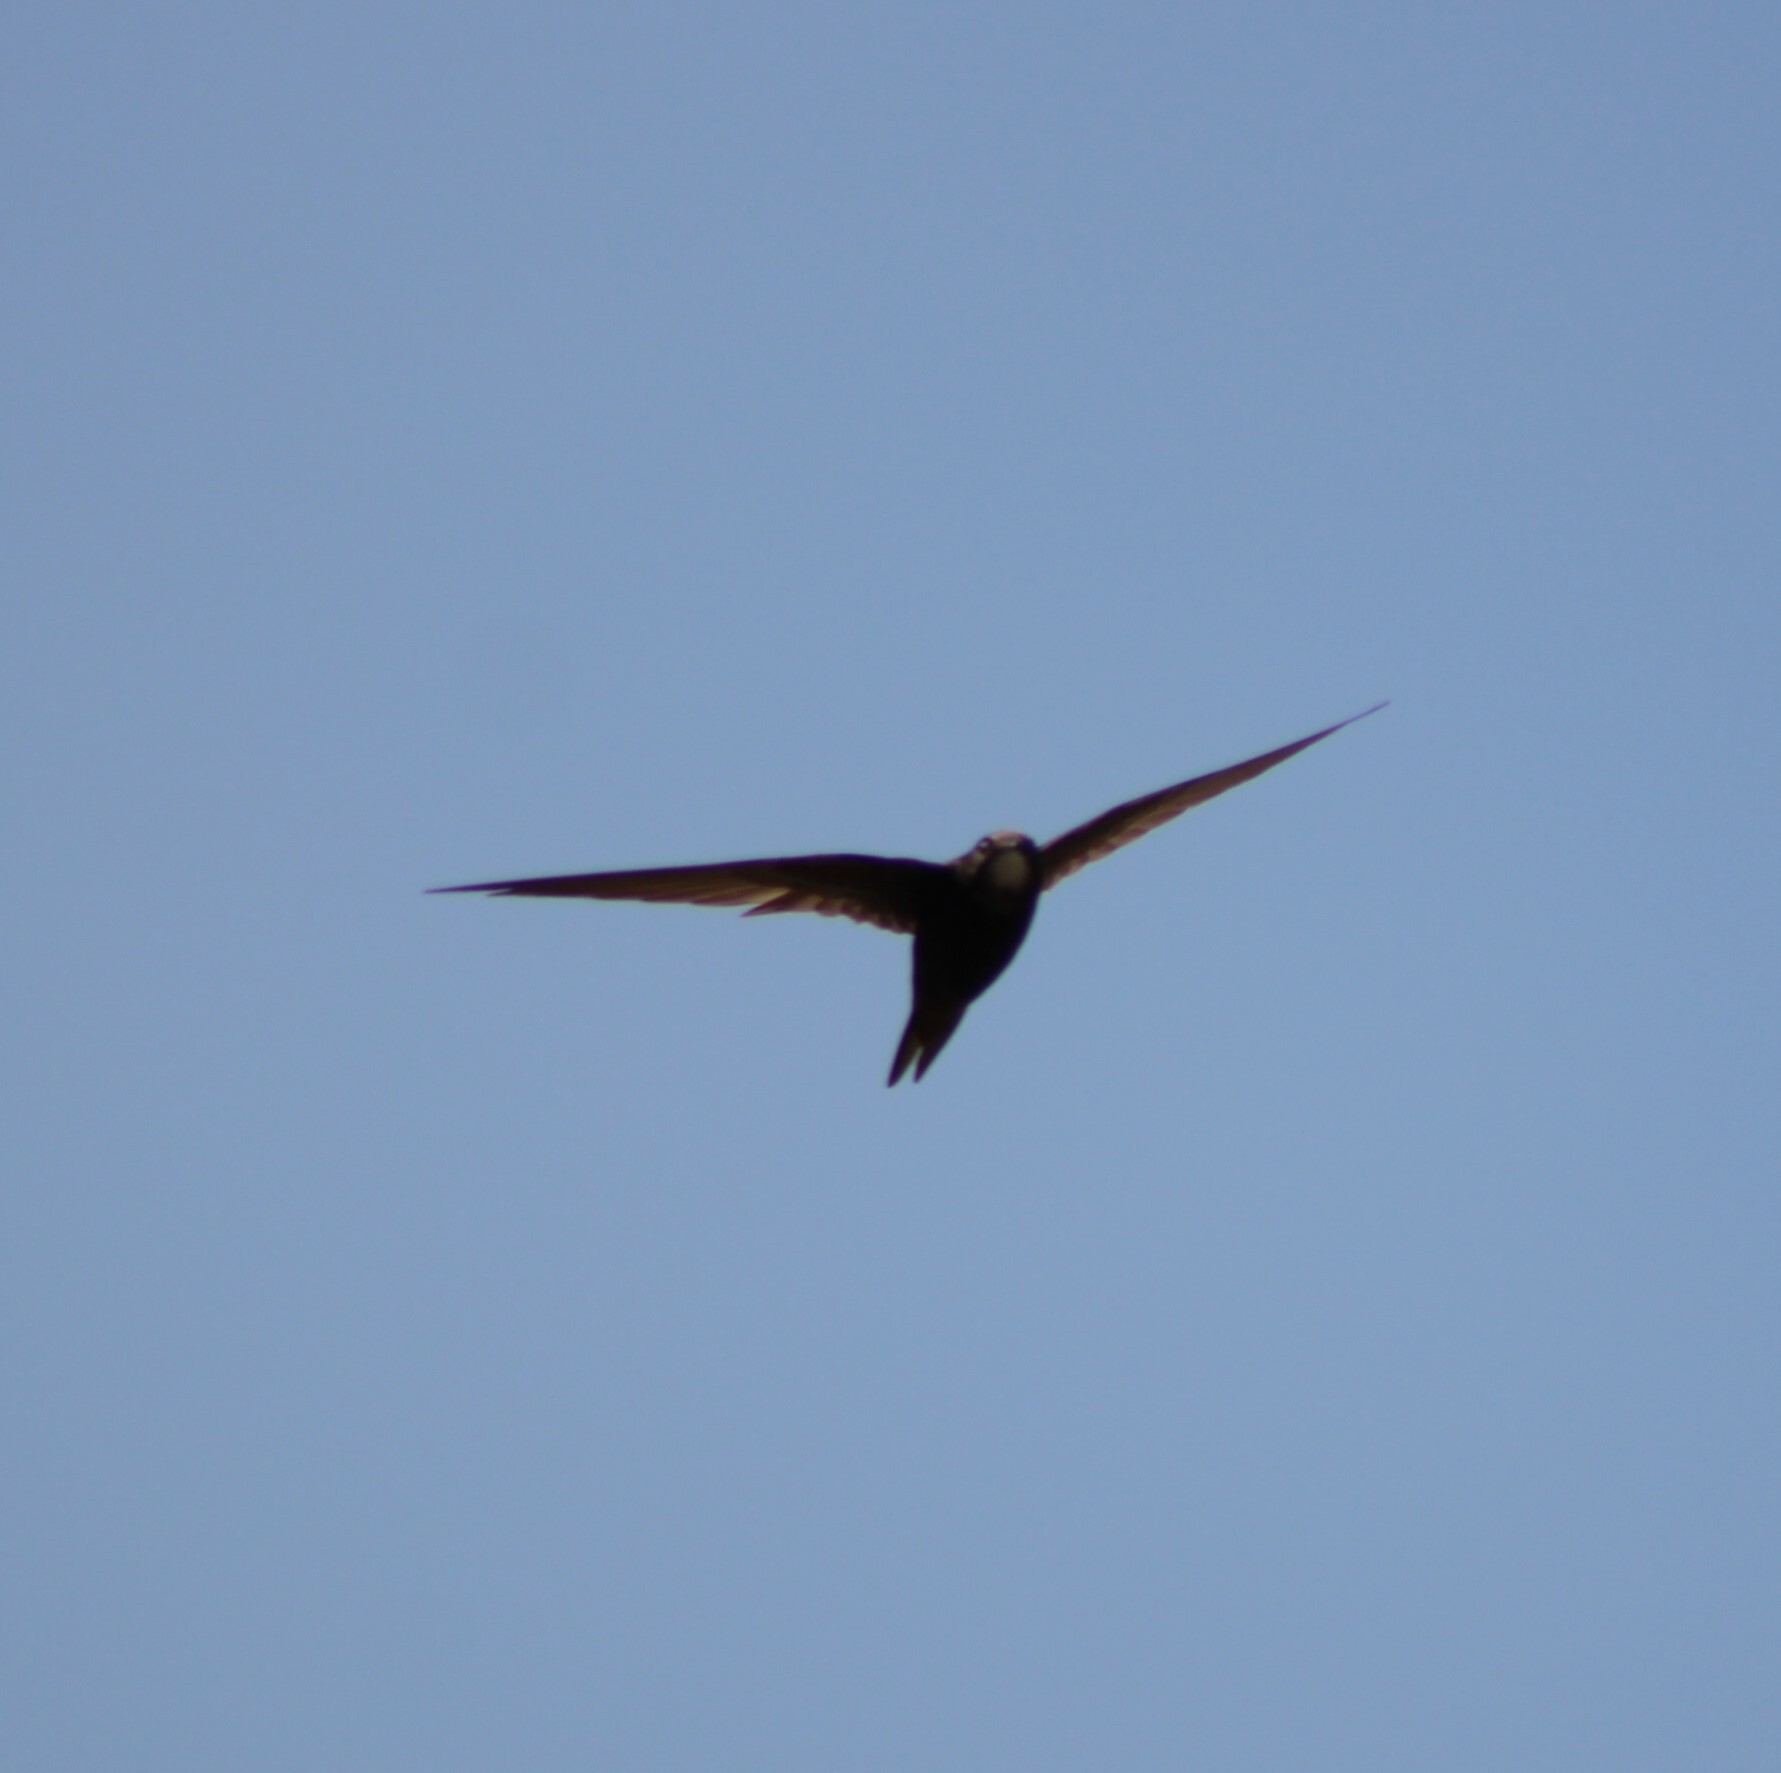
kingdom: Animalia
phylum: Chordata
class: Aves
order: Apodiformes
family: Apodidae
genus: Apus
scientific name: Apus apus
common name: Common swift
